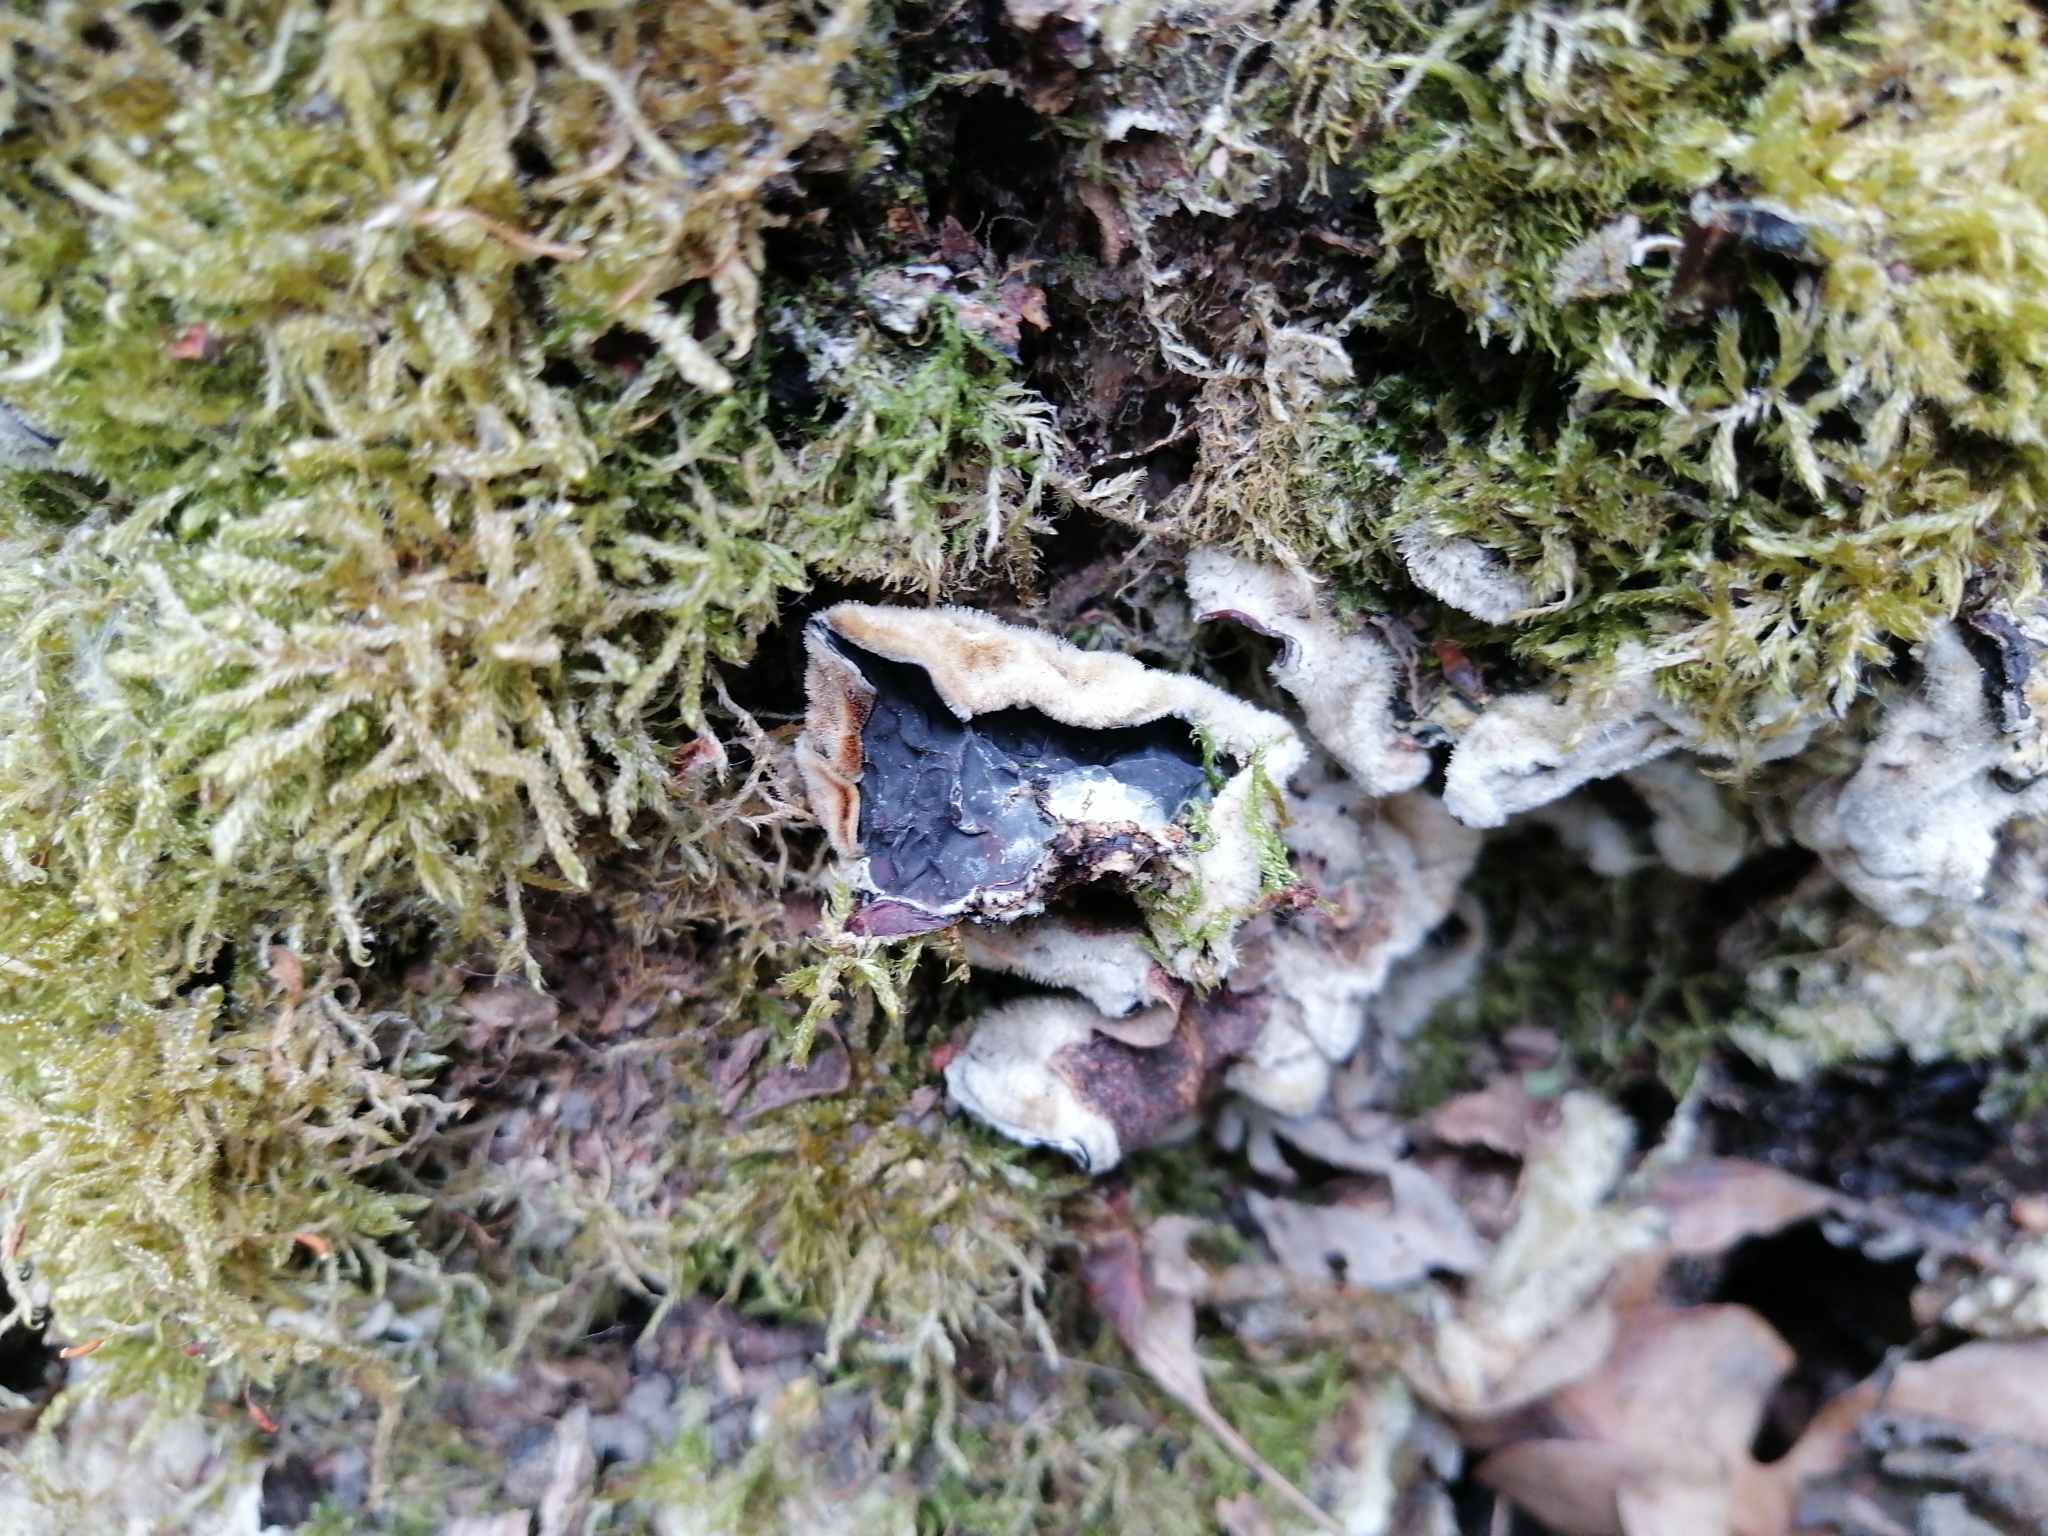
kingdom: Fungi
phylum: Basidiomycota
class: Agaricomycetes
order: Auriculariales
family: Auriculariaceae
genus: Auricularia
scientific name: Auricularia mesenterica
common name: Tripe fungus
